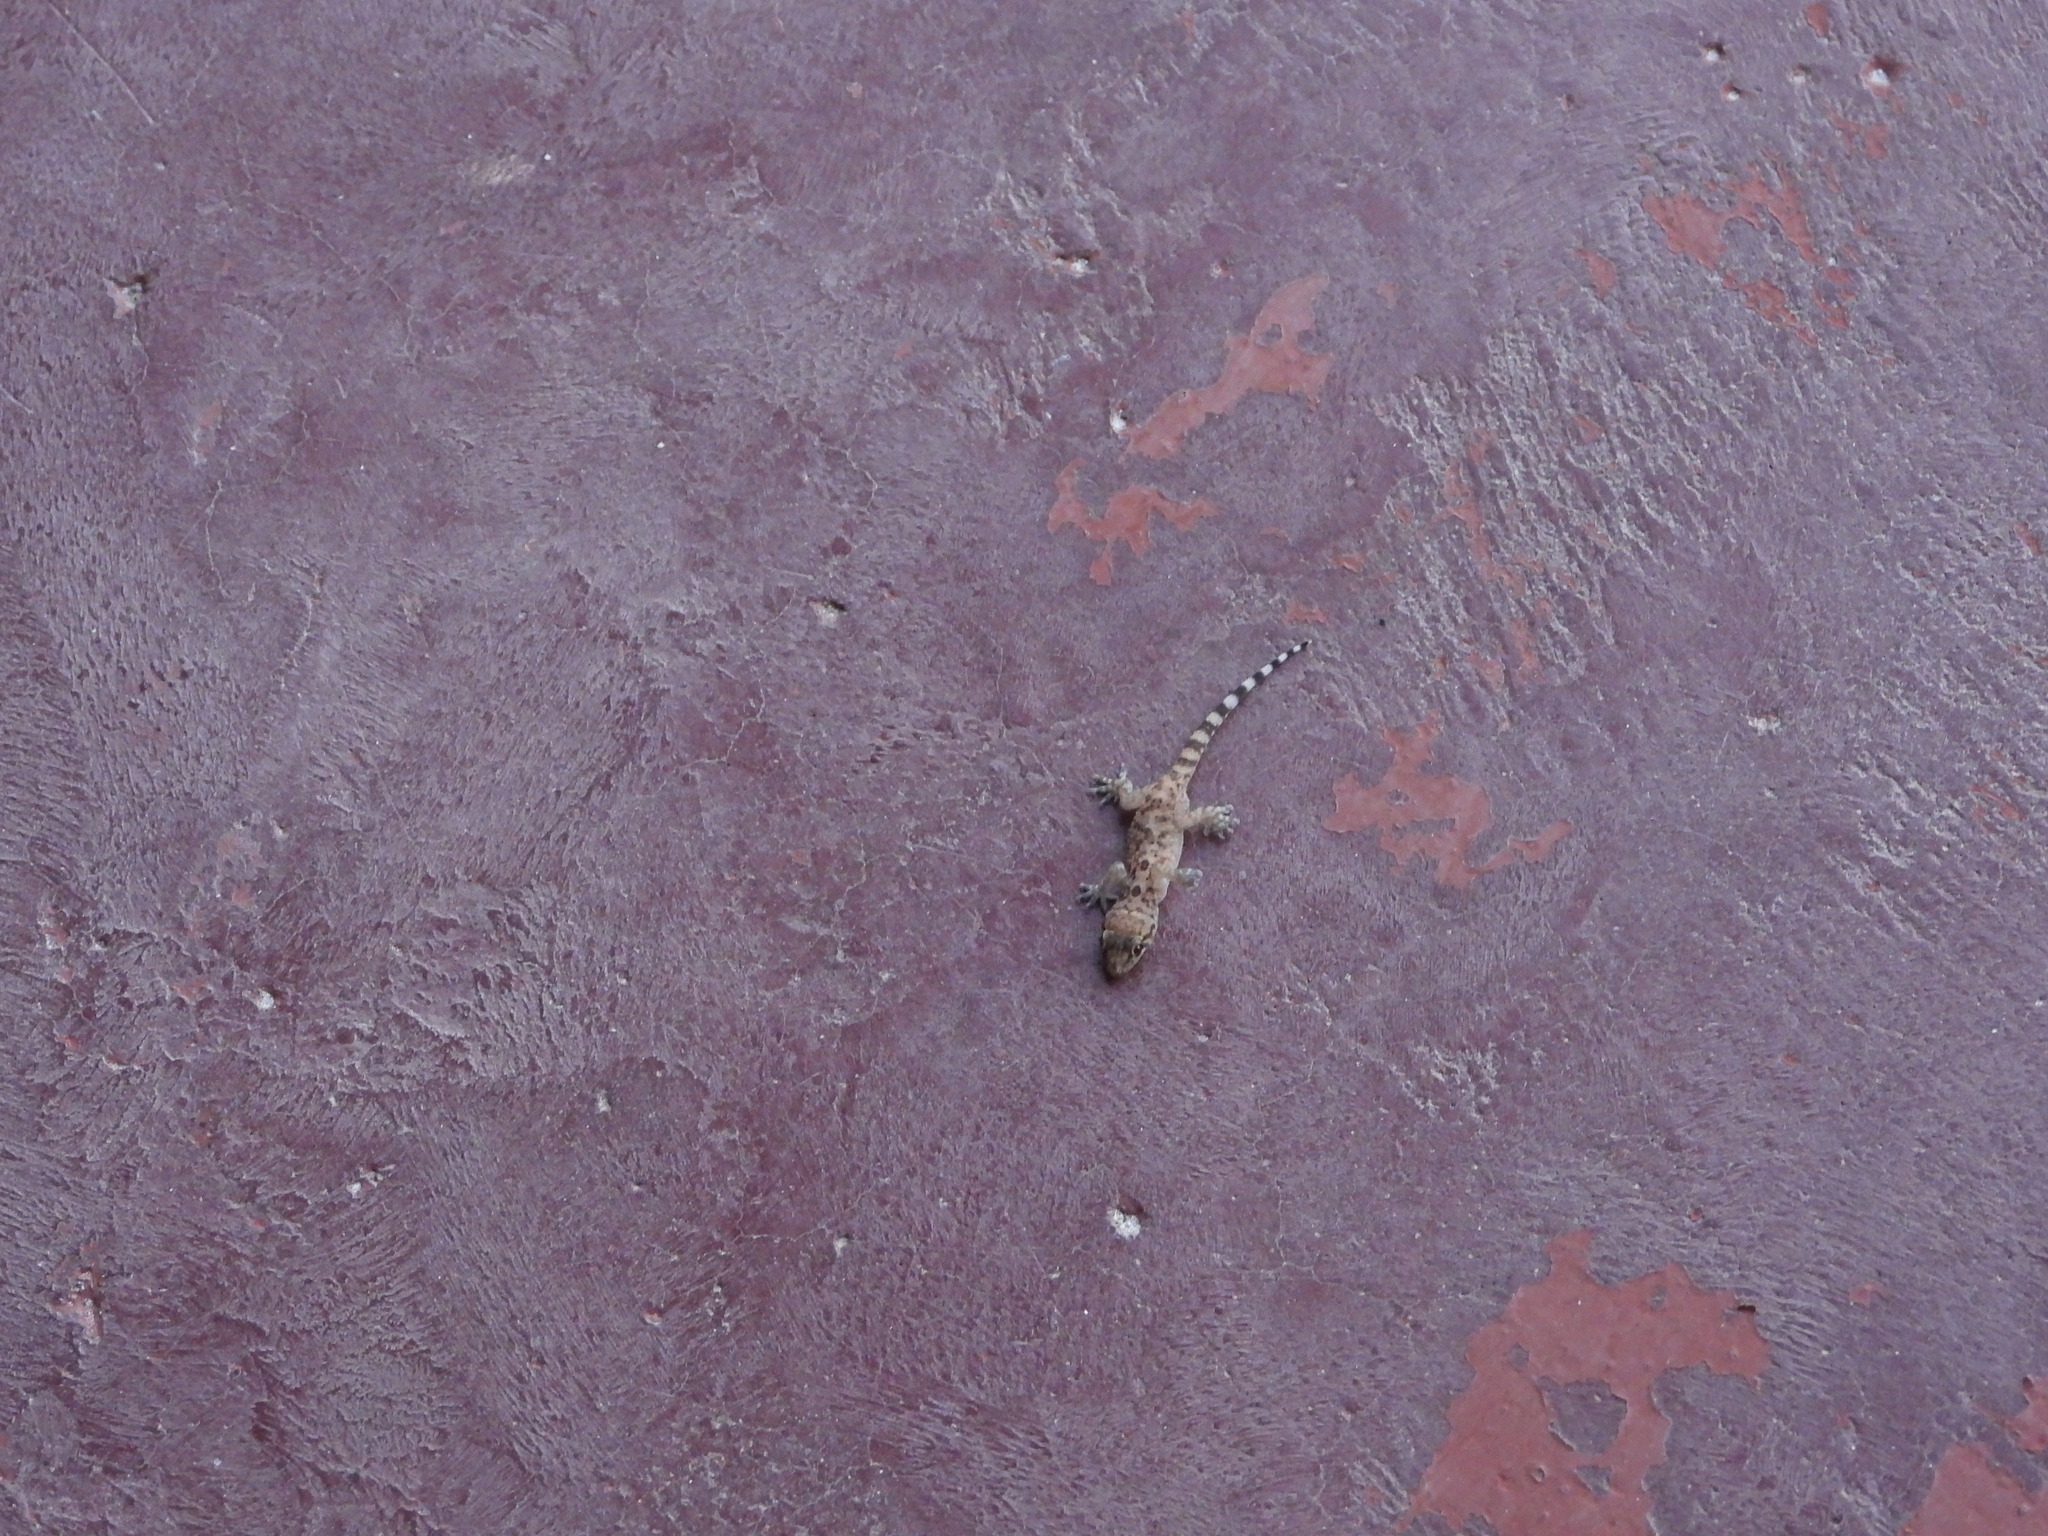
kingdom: Animalia
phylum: Chordata
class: Squamata
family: Gekkonidae
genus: Hemidactylus
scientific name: Hemidactylus turcicus
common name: Turkish gecko
